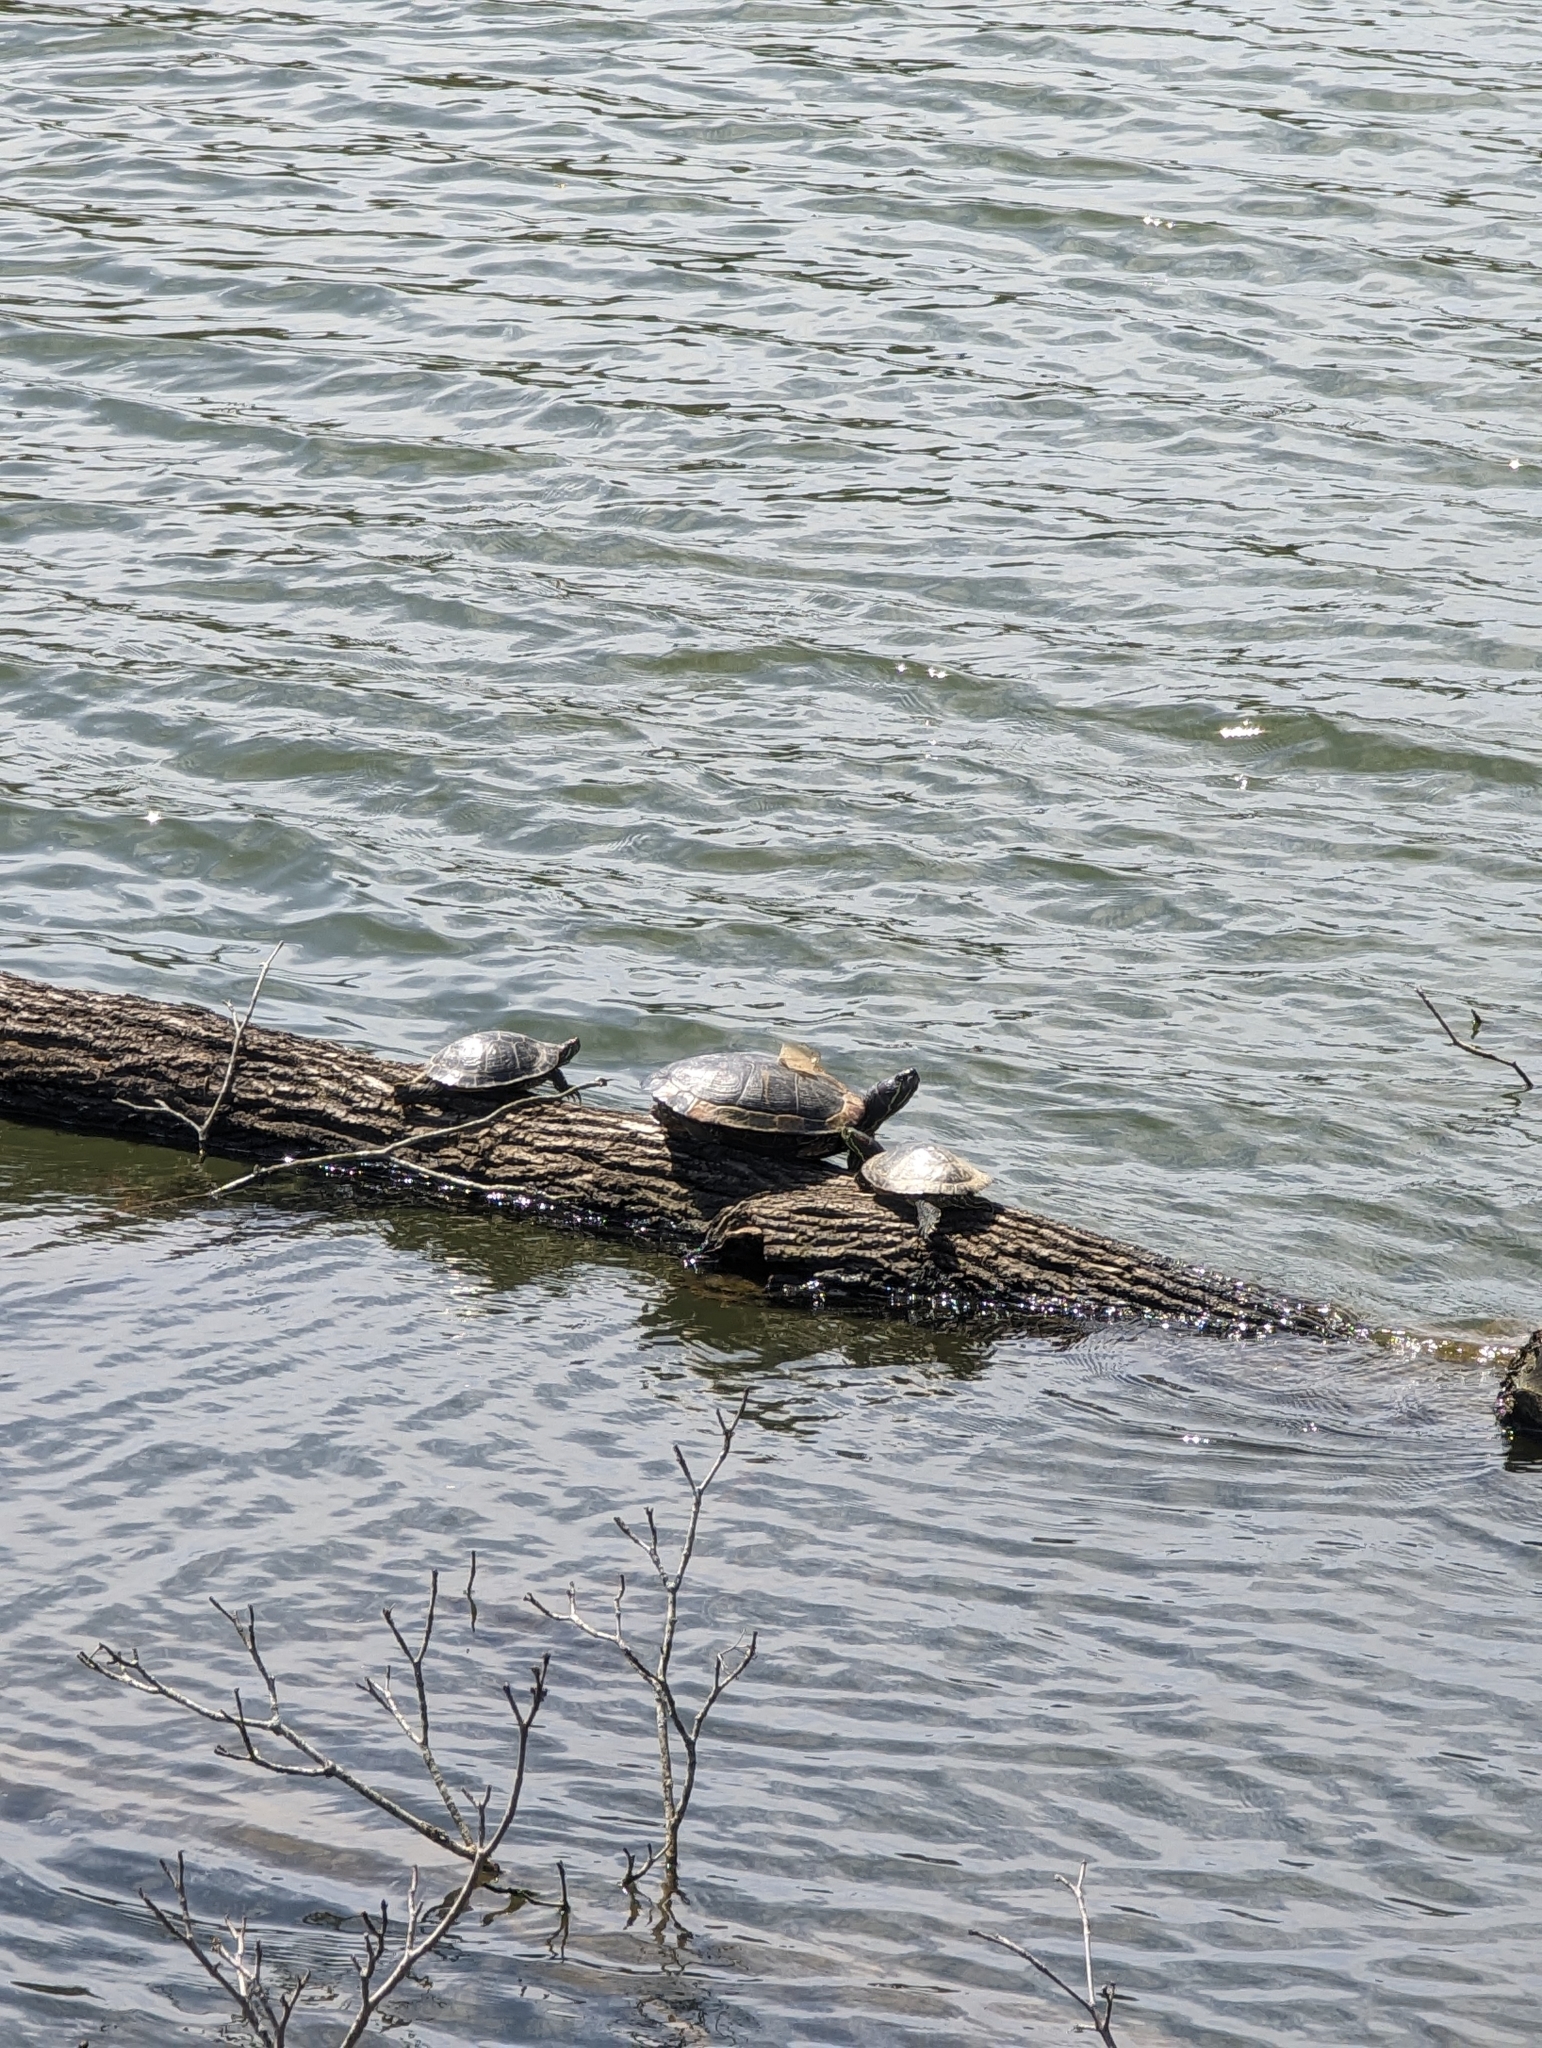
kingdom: Animalia
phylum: Chordata
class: Testudines
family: Emydidae
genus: Trachemys
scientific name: Trachemys scripta
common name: Slider
